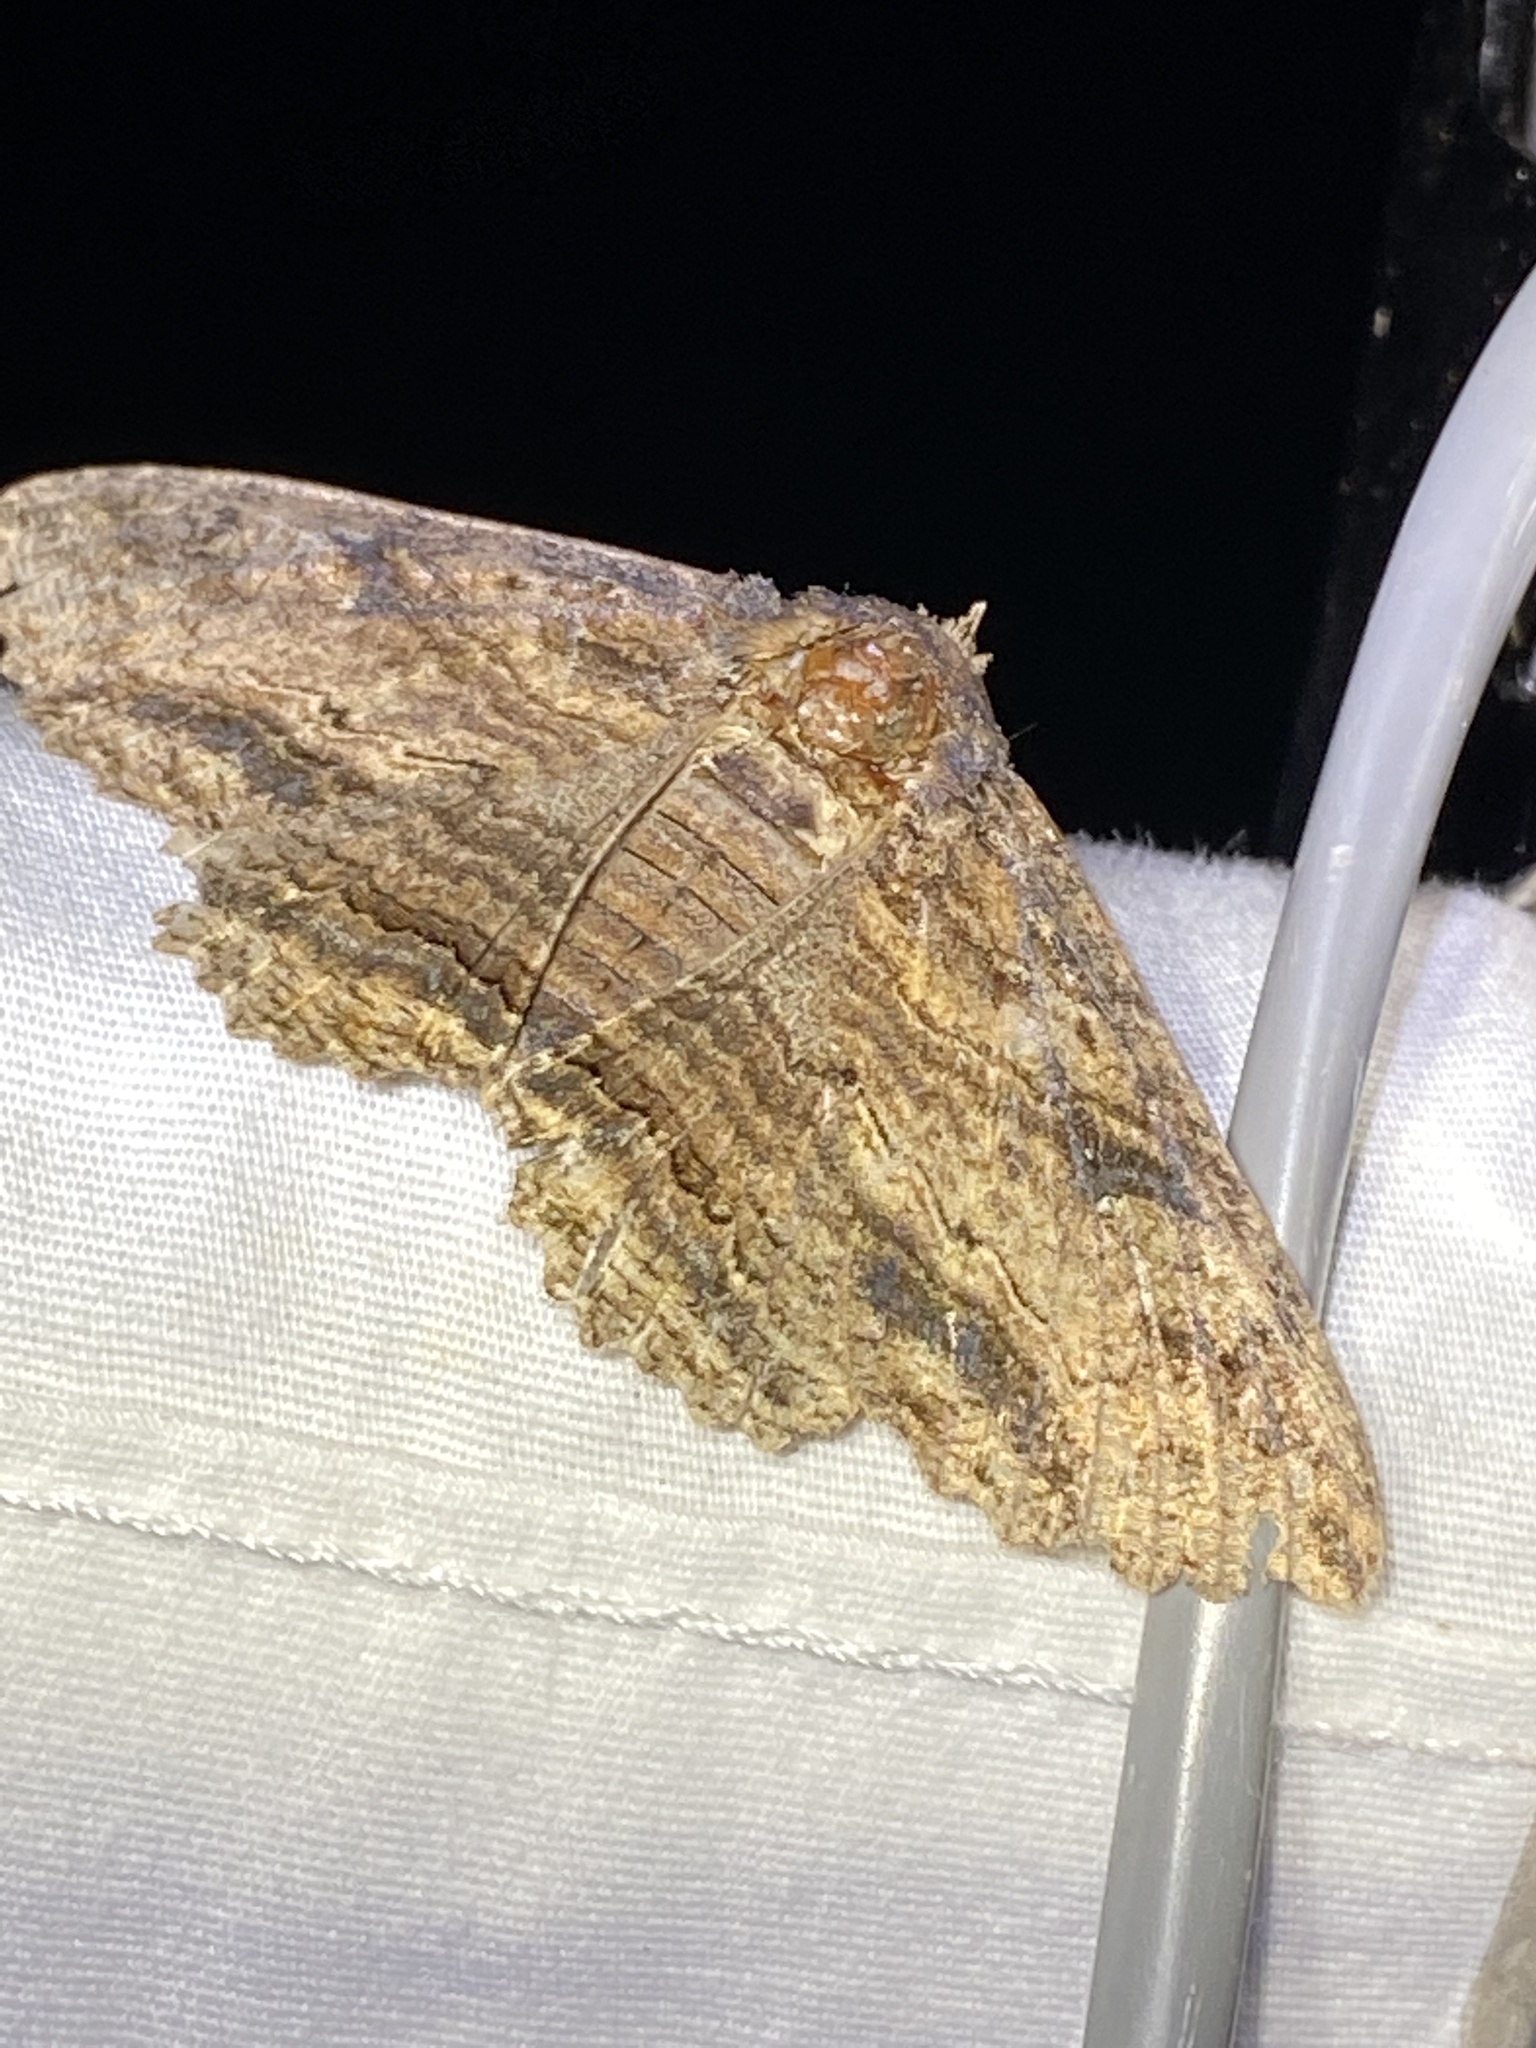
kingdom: Animalia
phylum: Arthropoda
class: Insecta
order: Lepidoptera
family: Erebidae
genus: Zale
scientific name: Zale lunata
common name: Lunate zale moth
